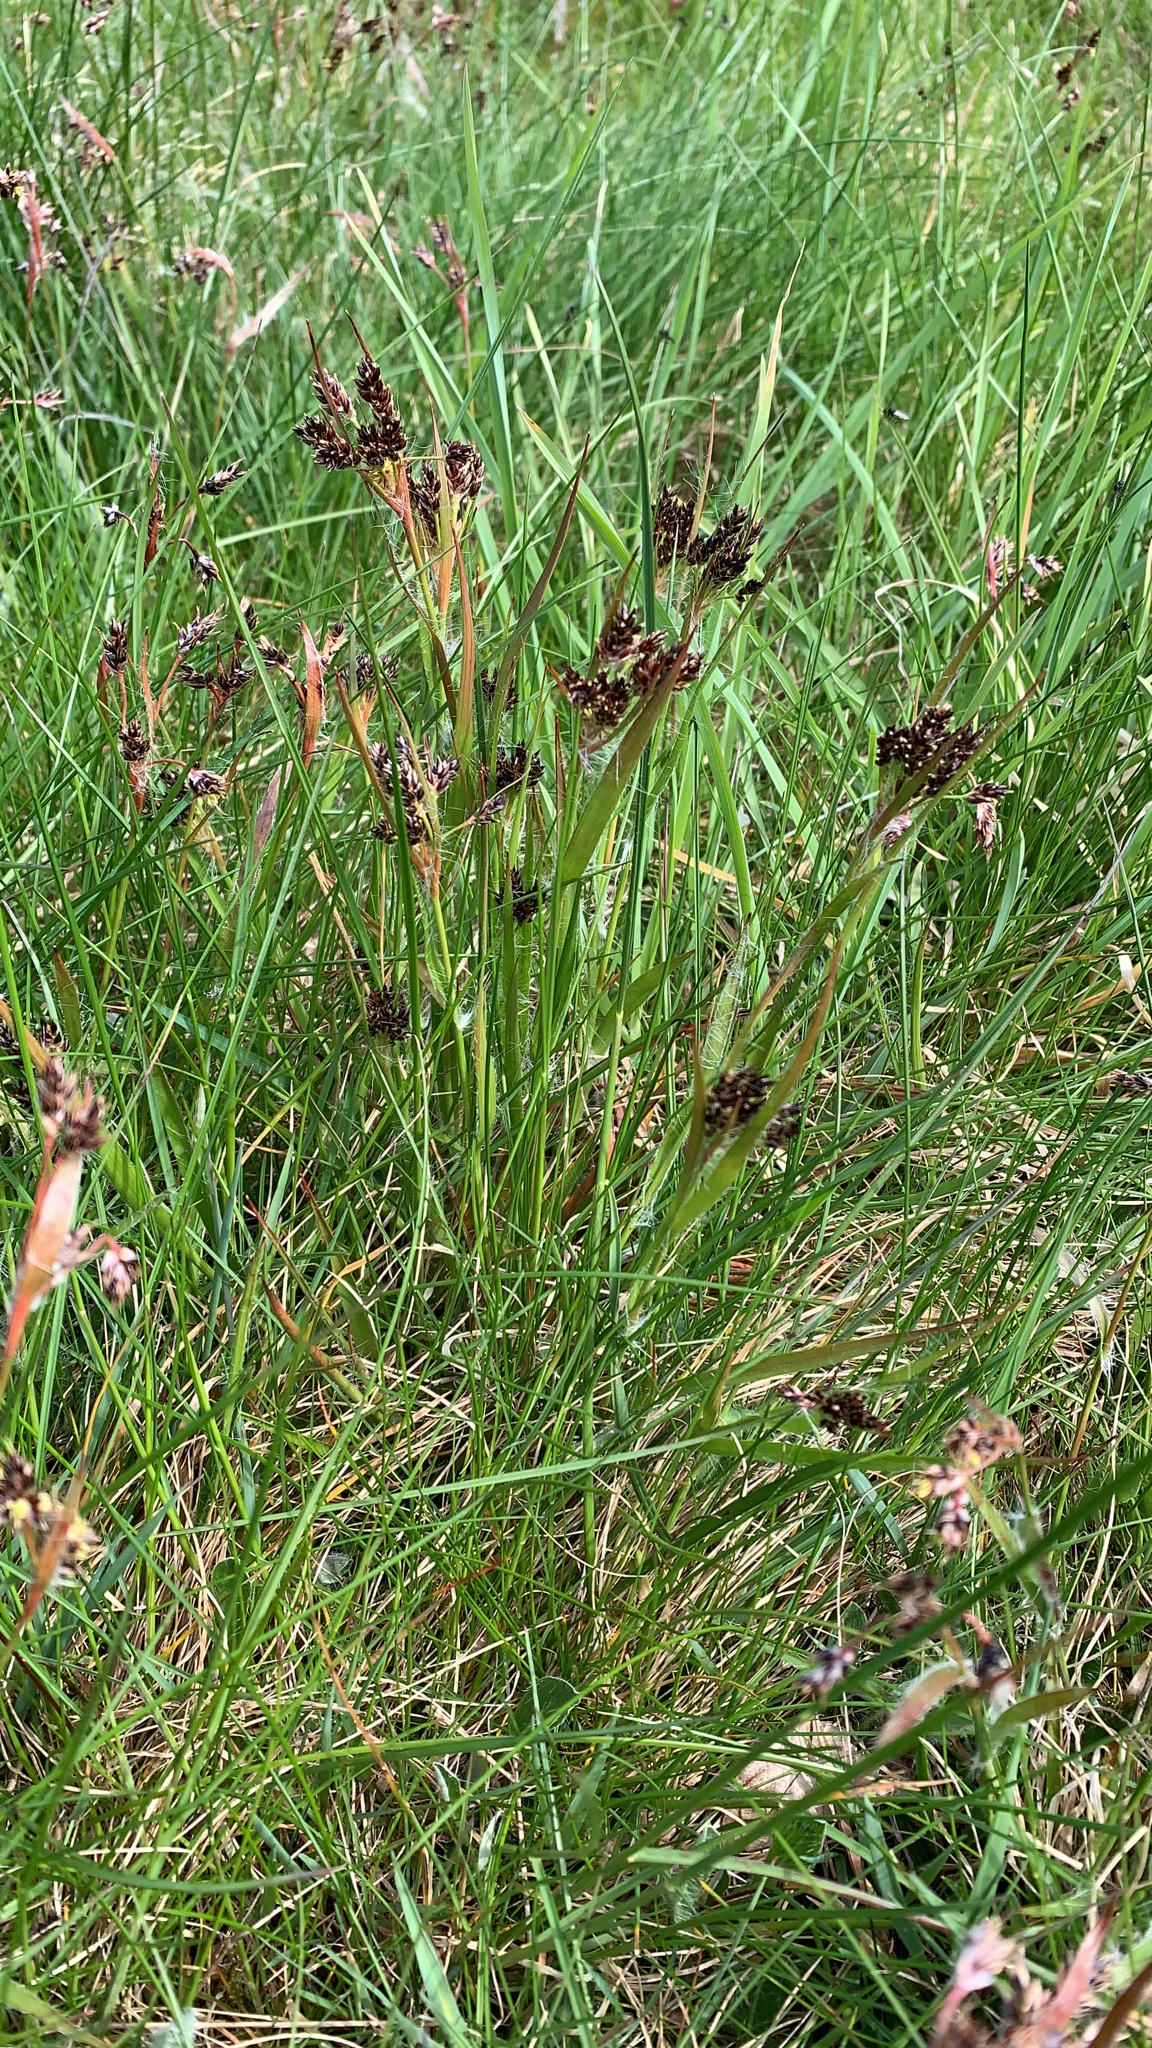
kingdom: Plantae
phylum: Tracheophyta
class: Liliopsida
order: Poales
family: Juncaceae
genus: Luzula
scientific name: Luzula campestris
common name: Field wood-rush
